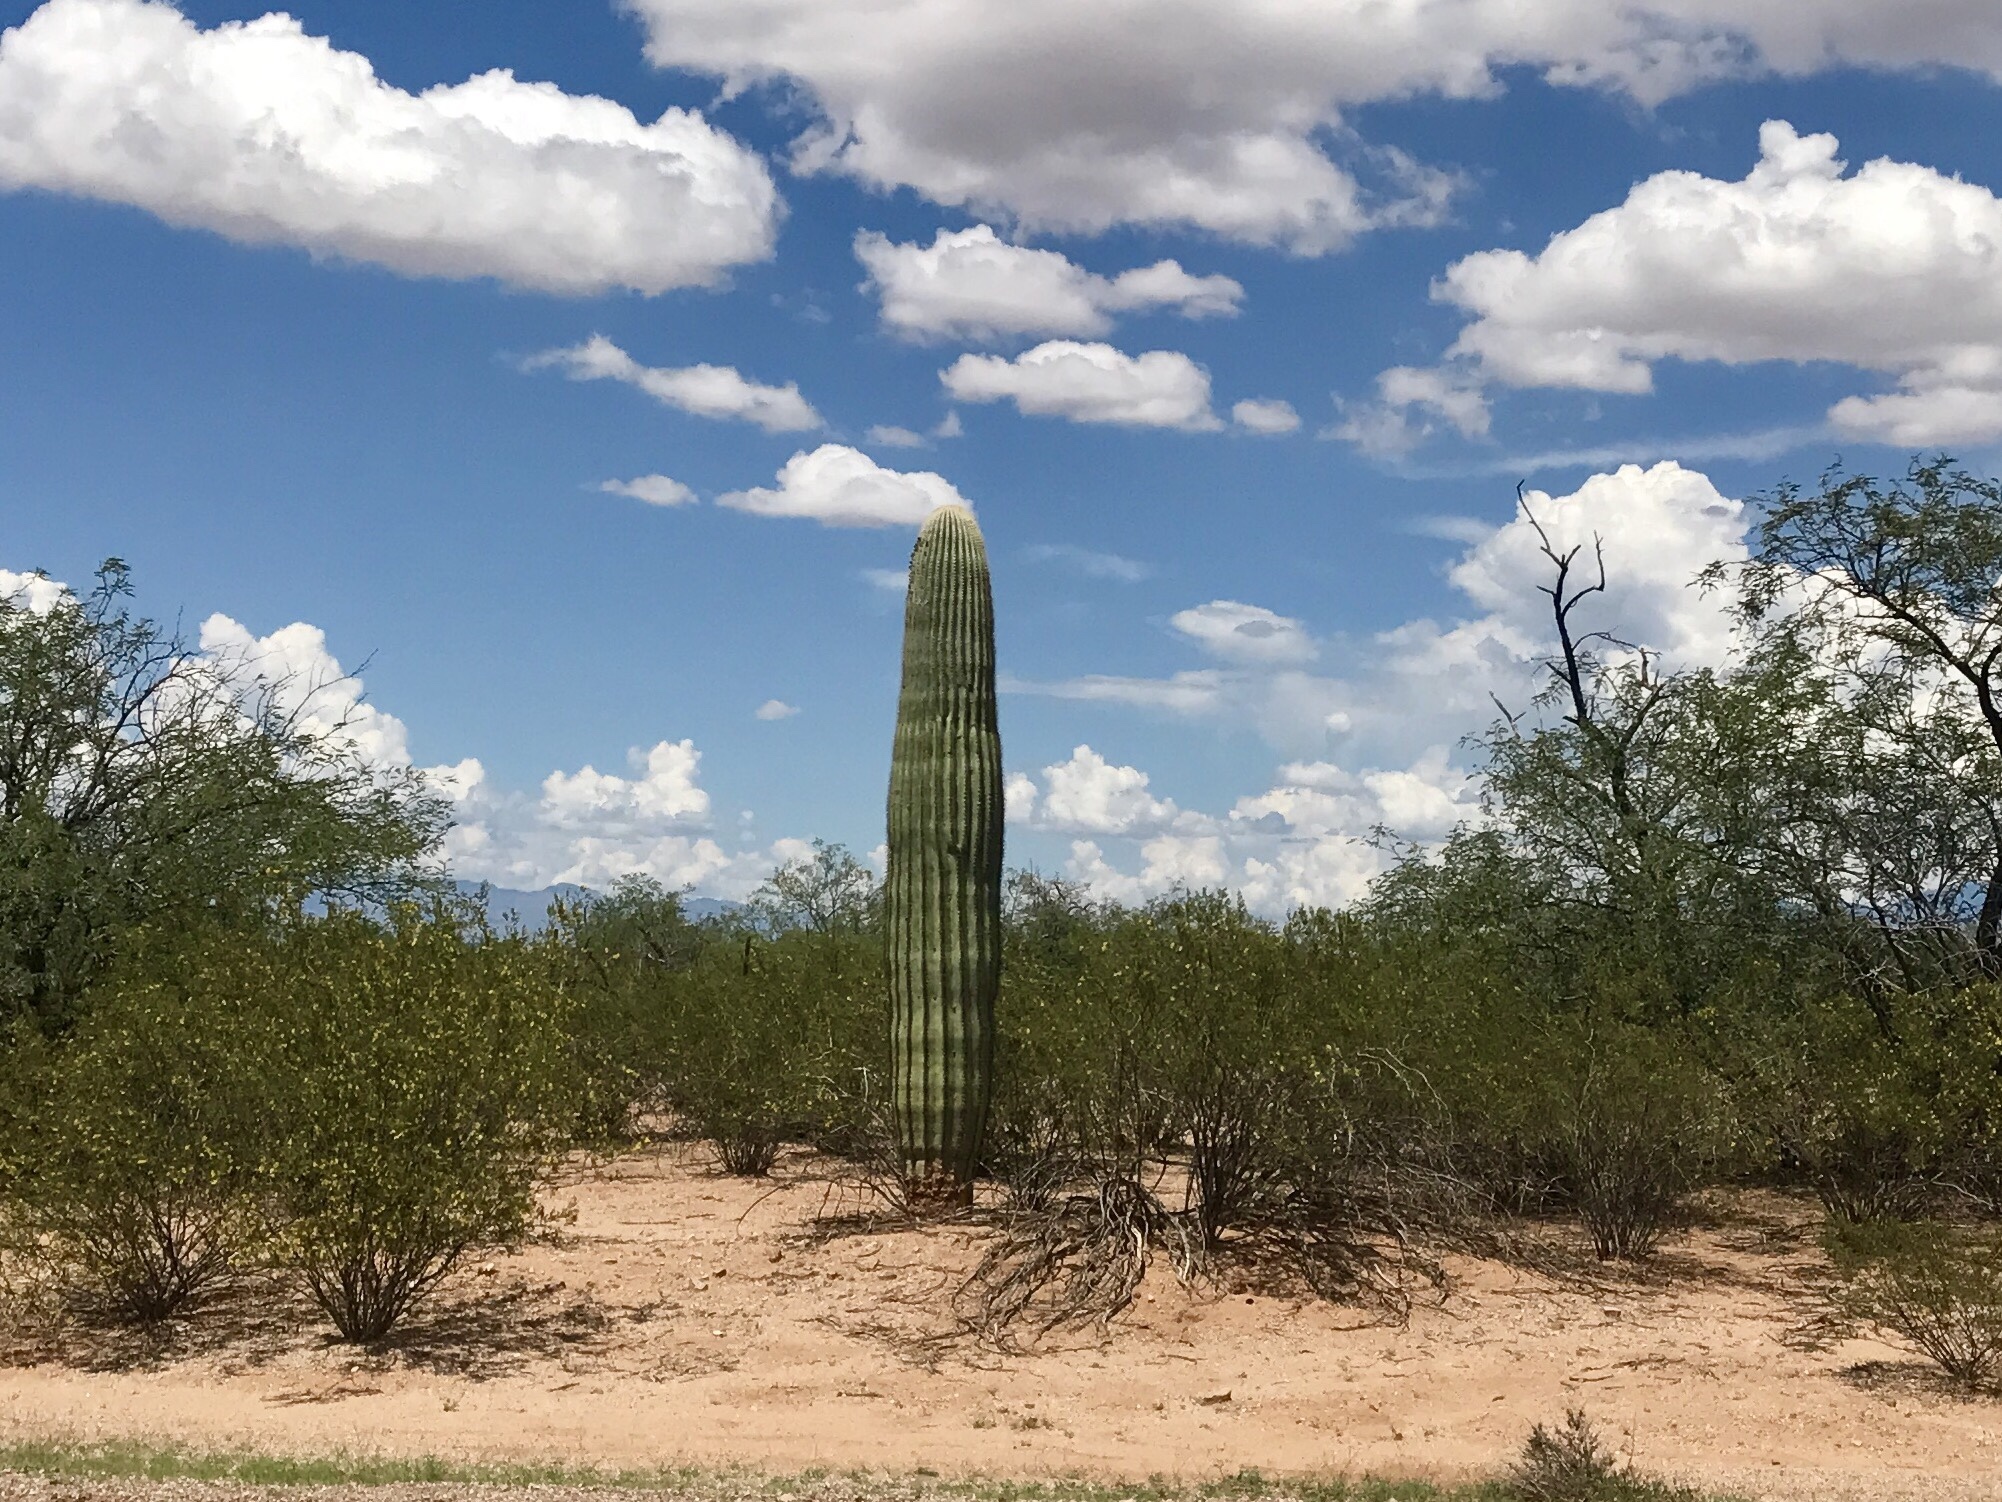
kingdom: Plantae
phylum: Tracheophyta
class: Magnoliopsida
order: Caryophyllales
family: Cactaceae
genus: Carnegiea
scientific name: Carnegiea gigantea
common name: Saguaro
